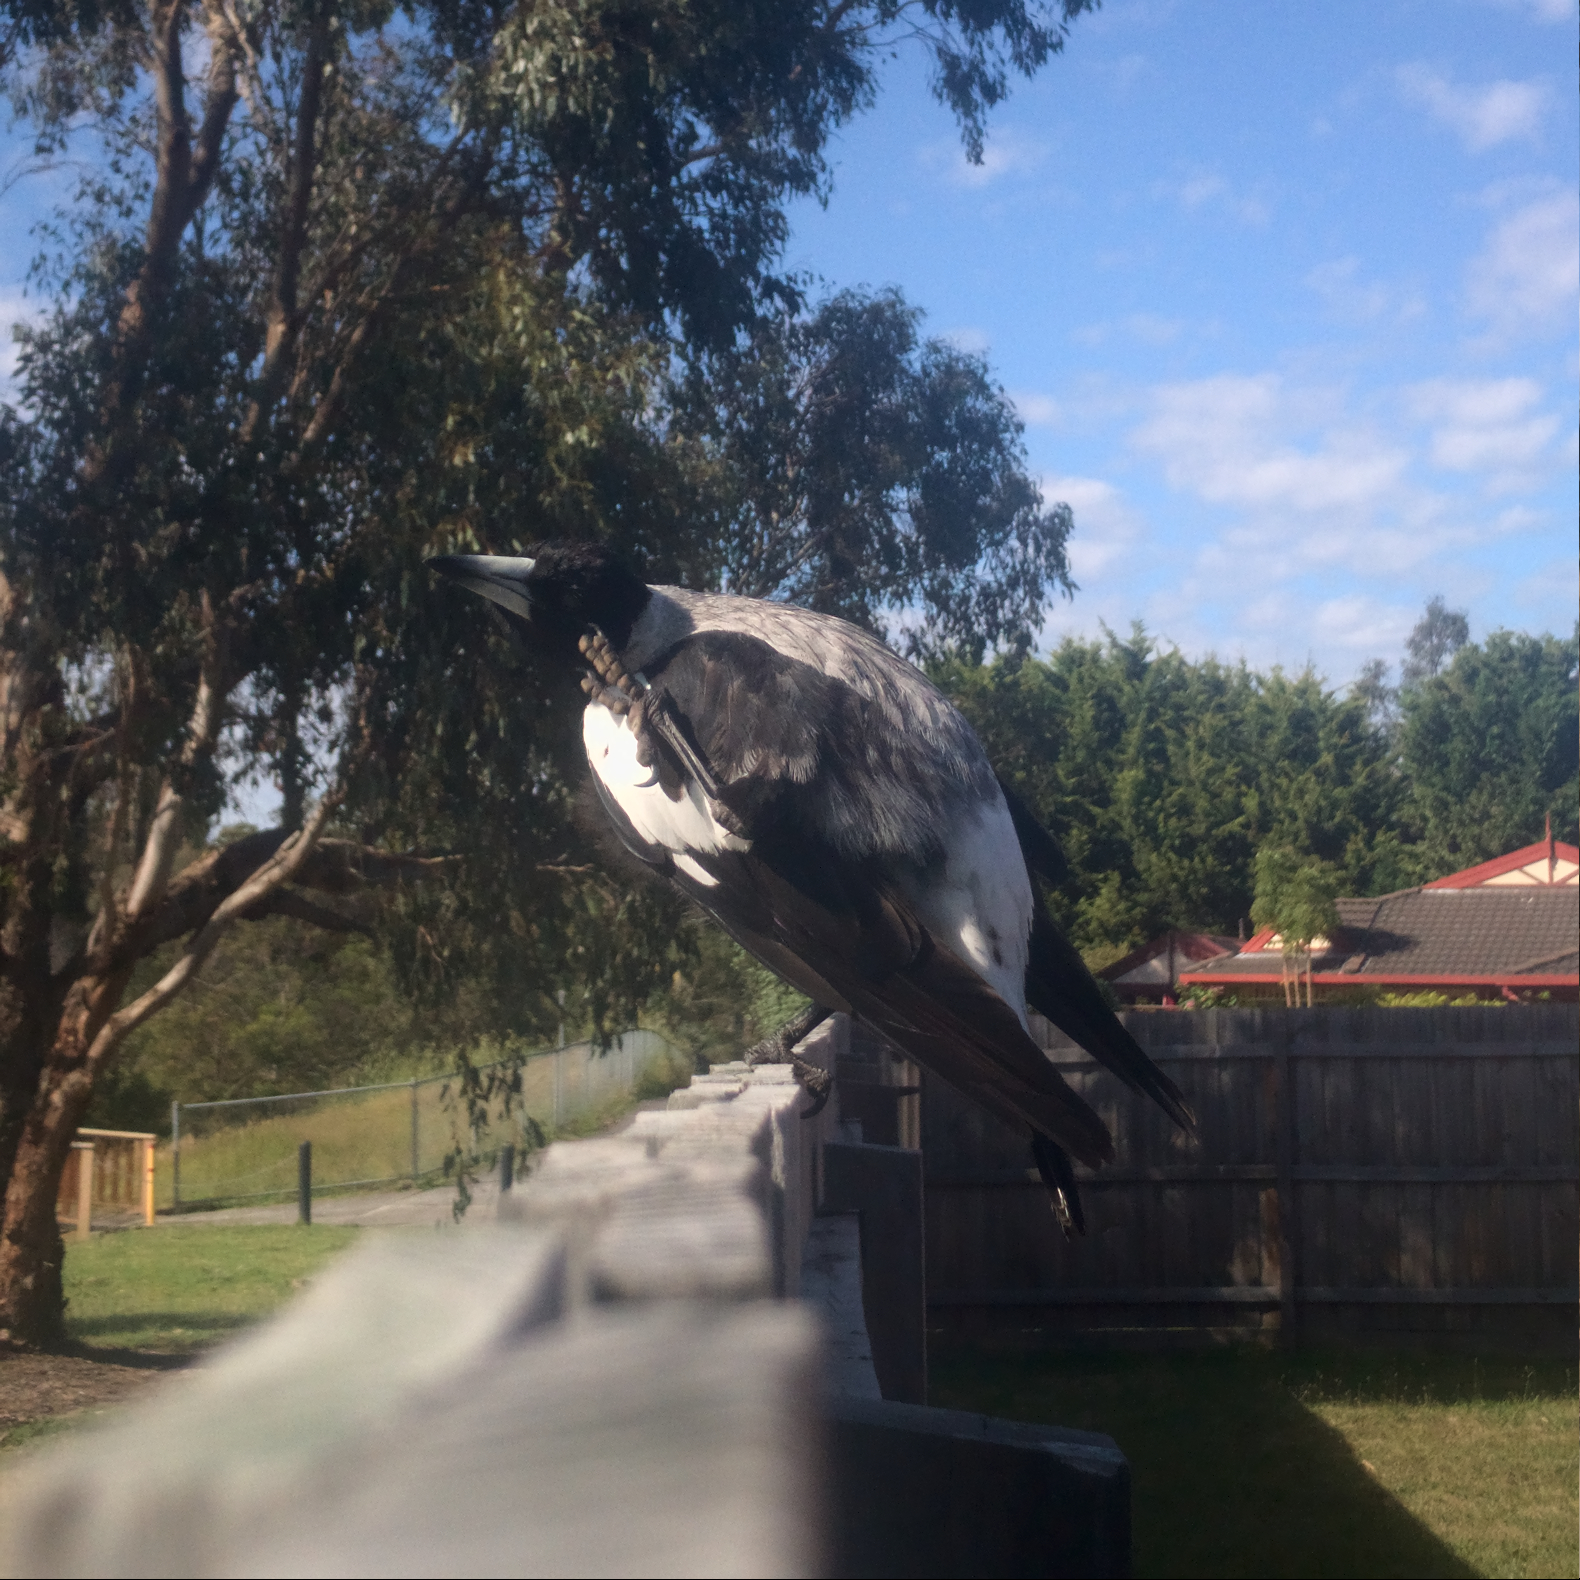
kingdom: Animalia
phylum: Chordata
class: Aves
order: Passeriformes
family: Cracticidae
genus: Gymnorhina
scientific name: Gymnorhina tibicen
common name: Australian magpie
